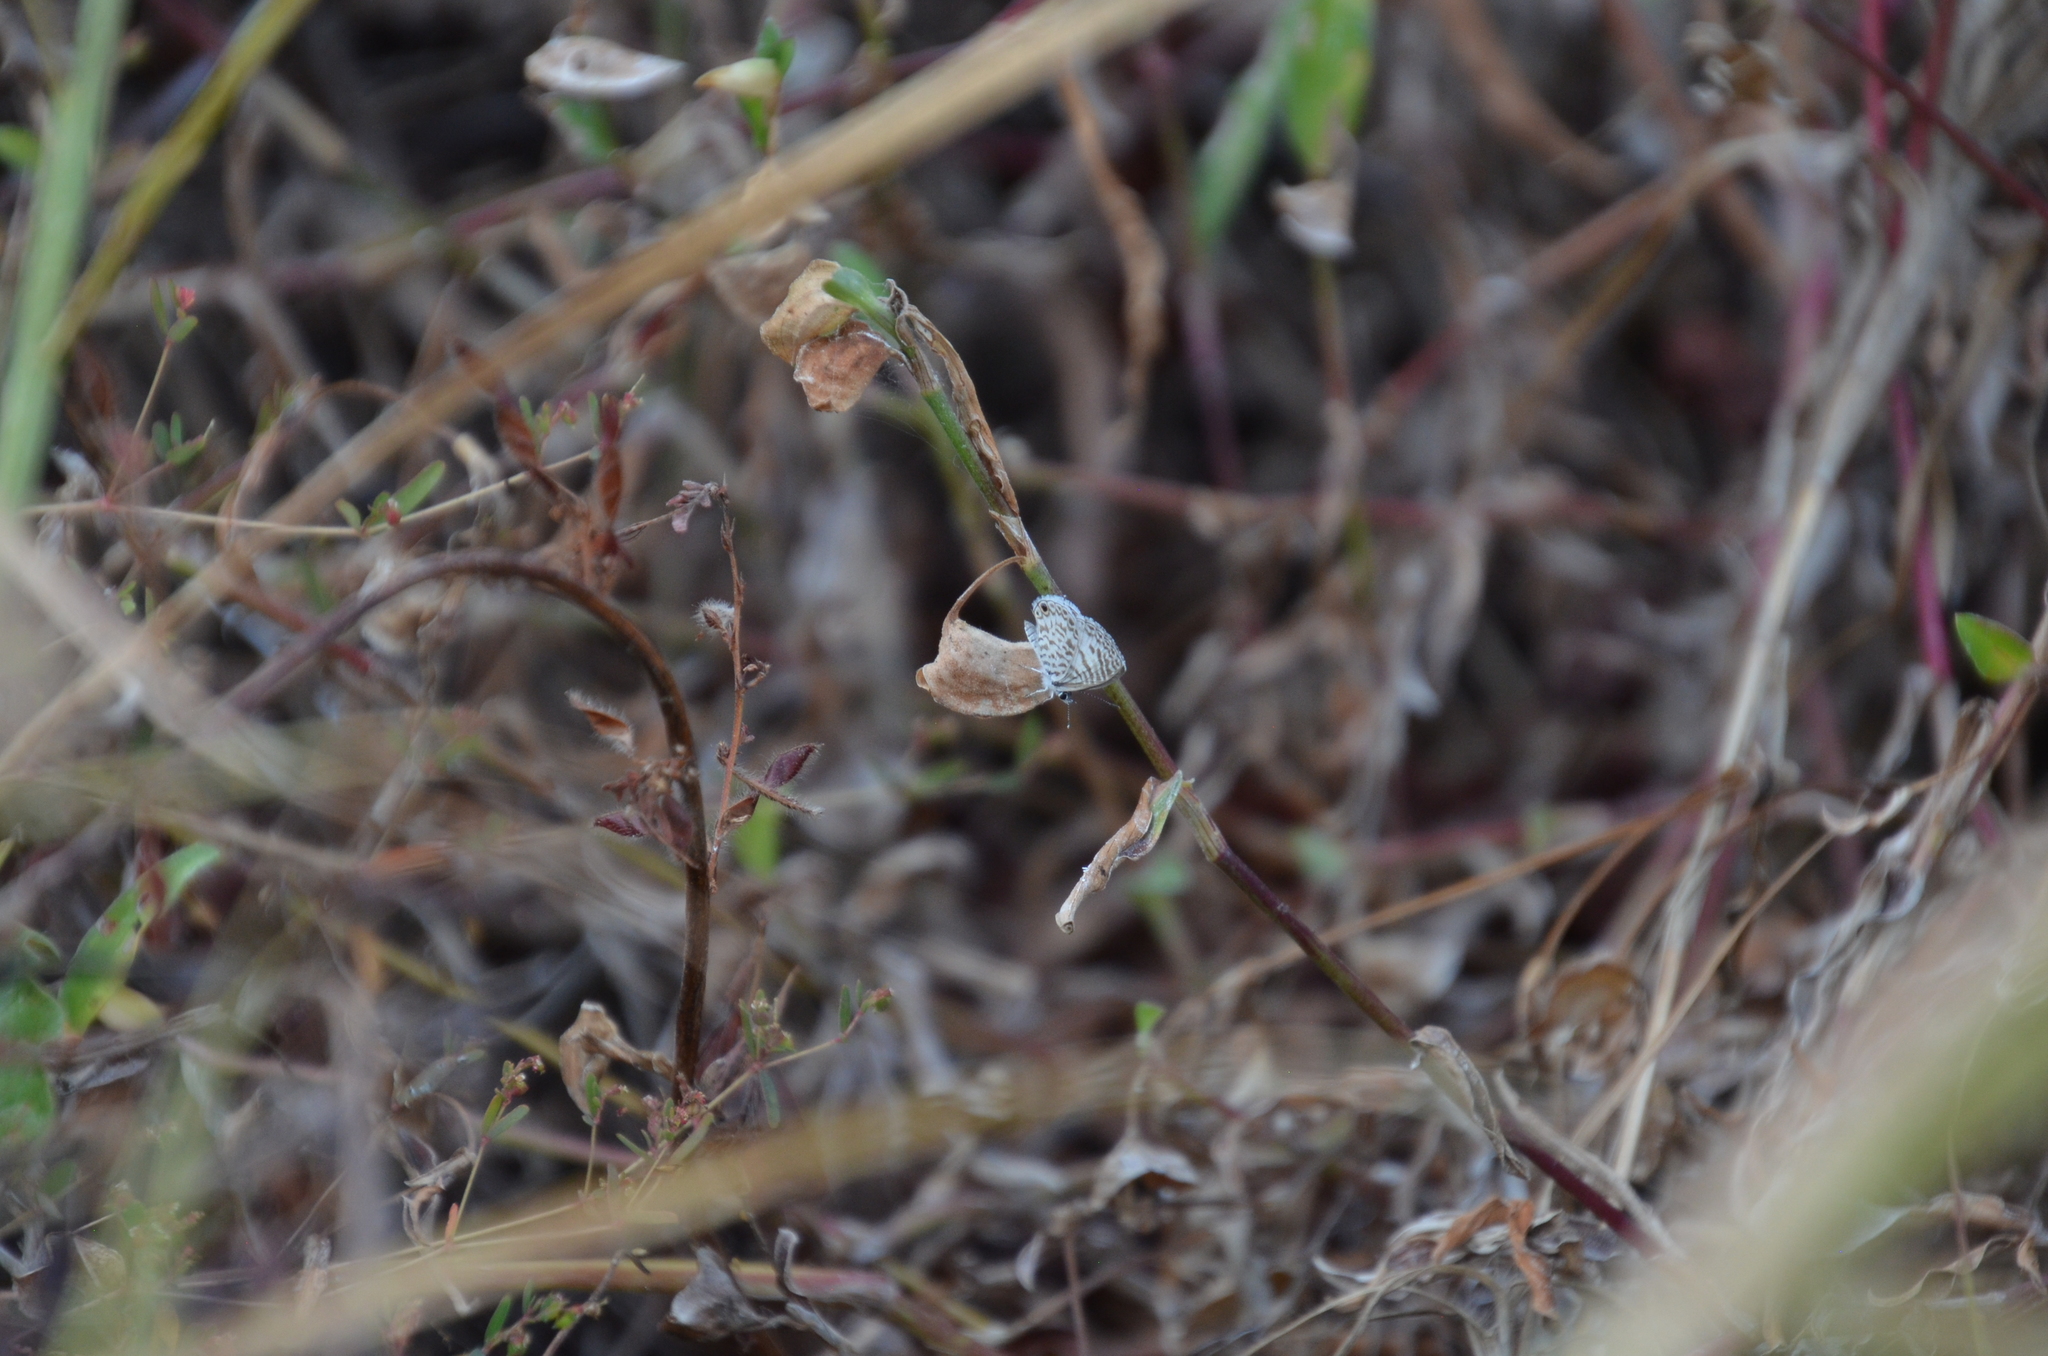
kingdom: Animalia
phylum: Arthropoda
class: Insecta
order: Lepidoptera
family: Lycaenidae
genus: Leptotes
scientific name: Leptotes theonus
